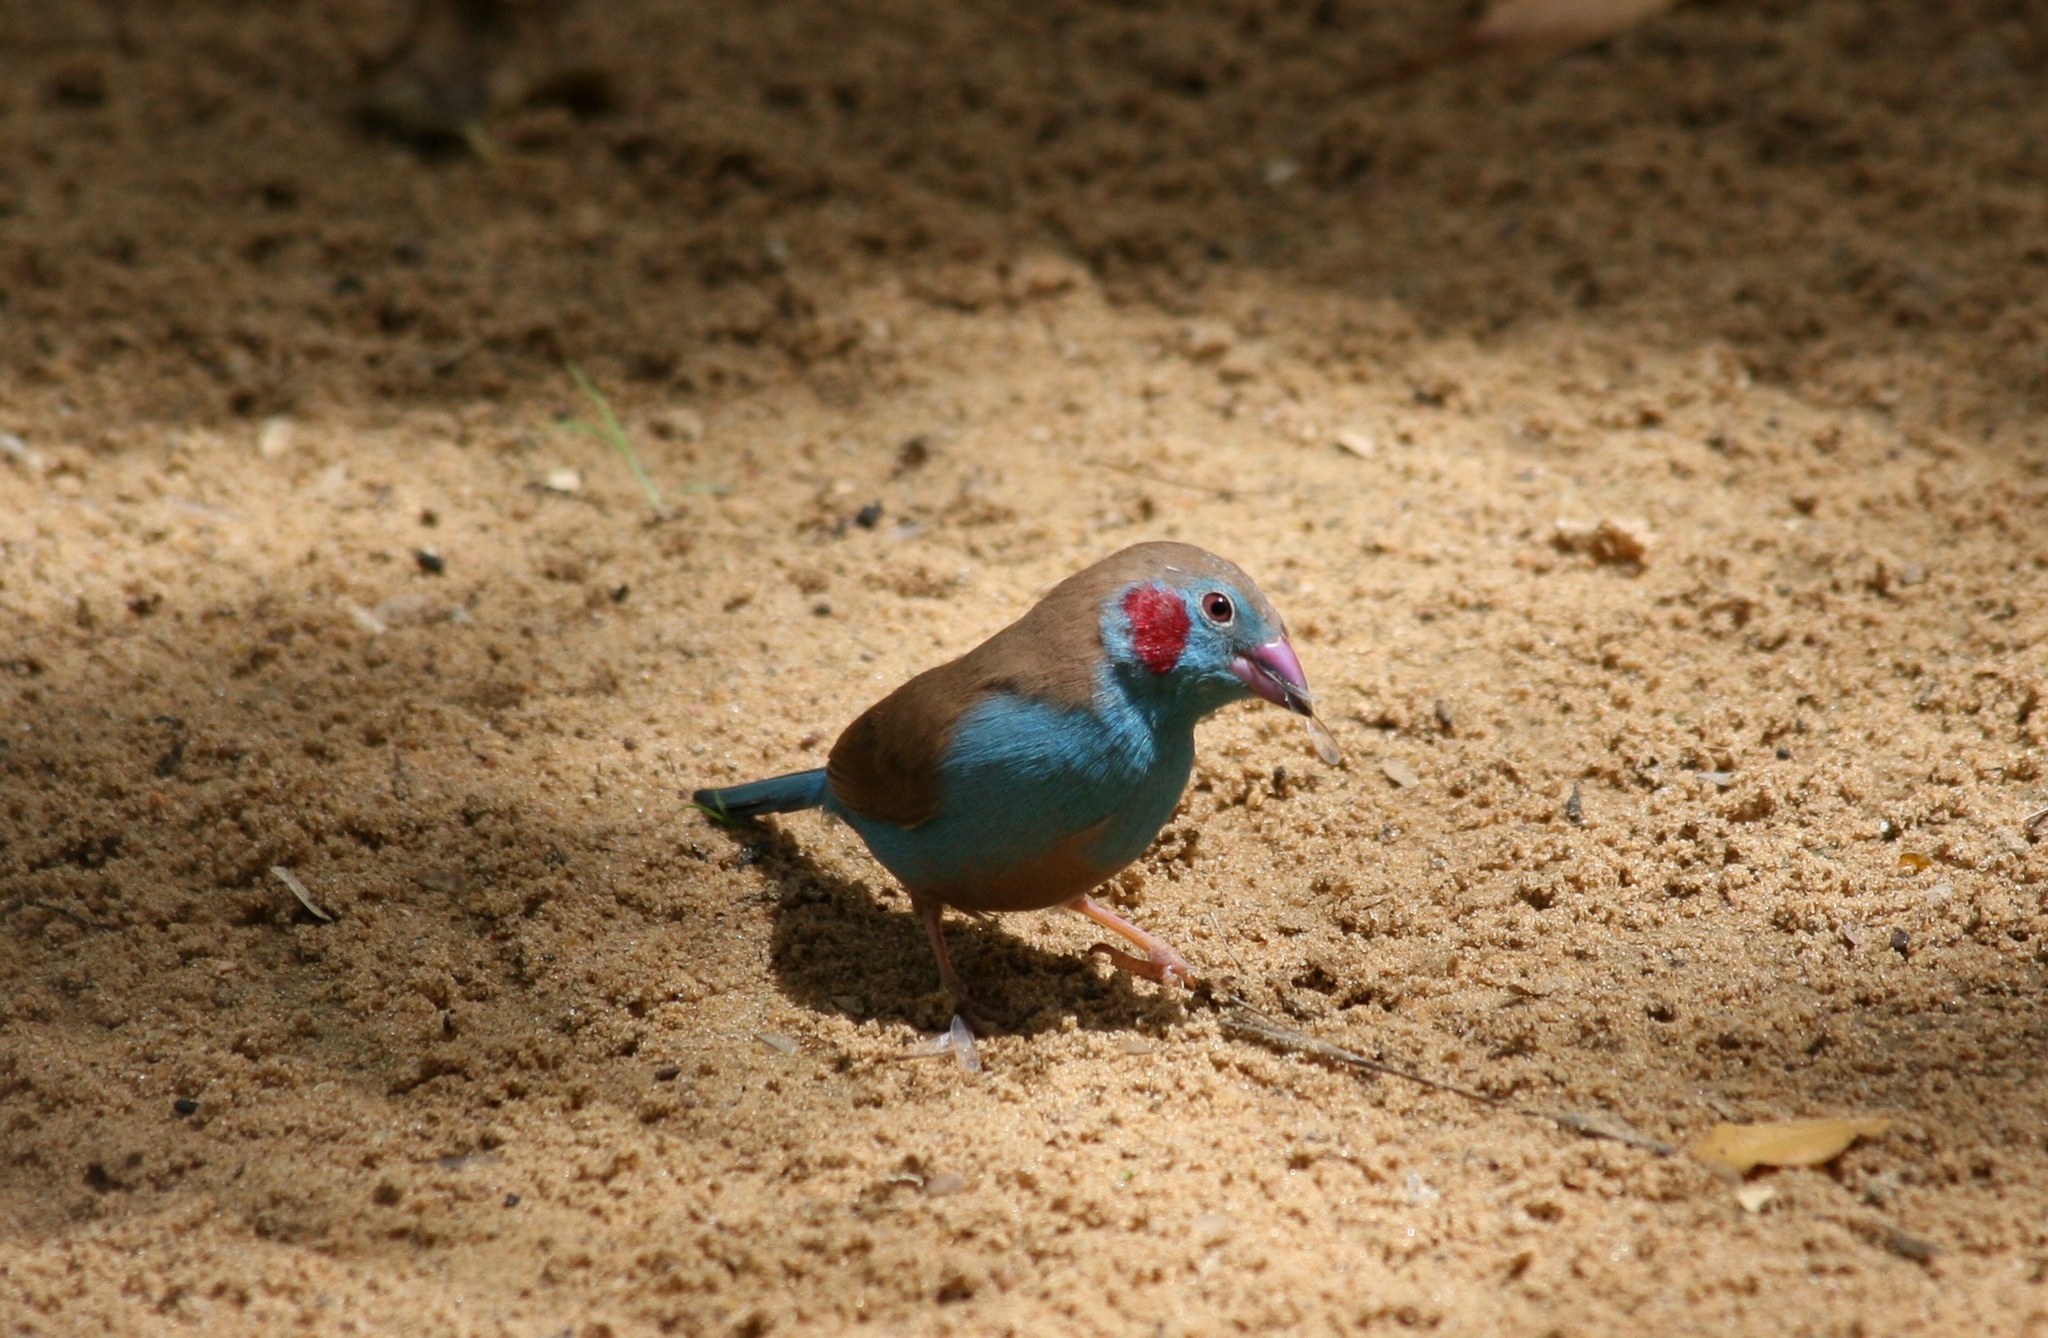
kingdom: Animalia
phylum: Chordata
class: Aves
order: Passeriformes
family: Estrildidae
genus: Uraeginthus
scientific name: Uraeginthus bengalus
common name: Red-cheeked cordon-bleu
